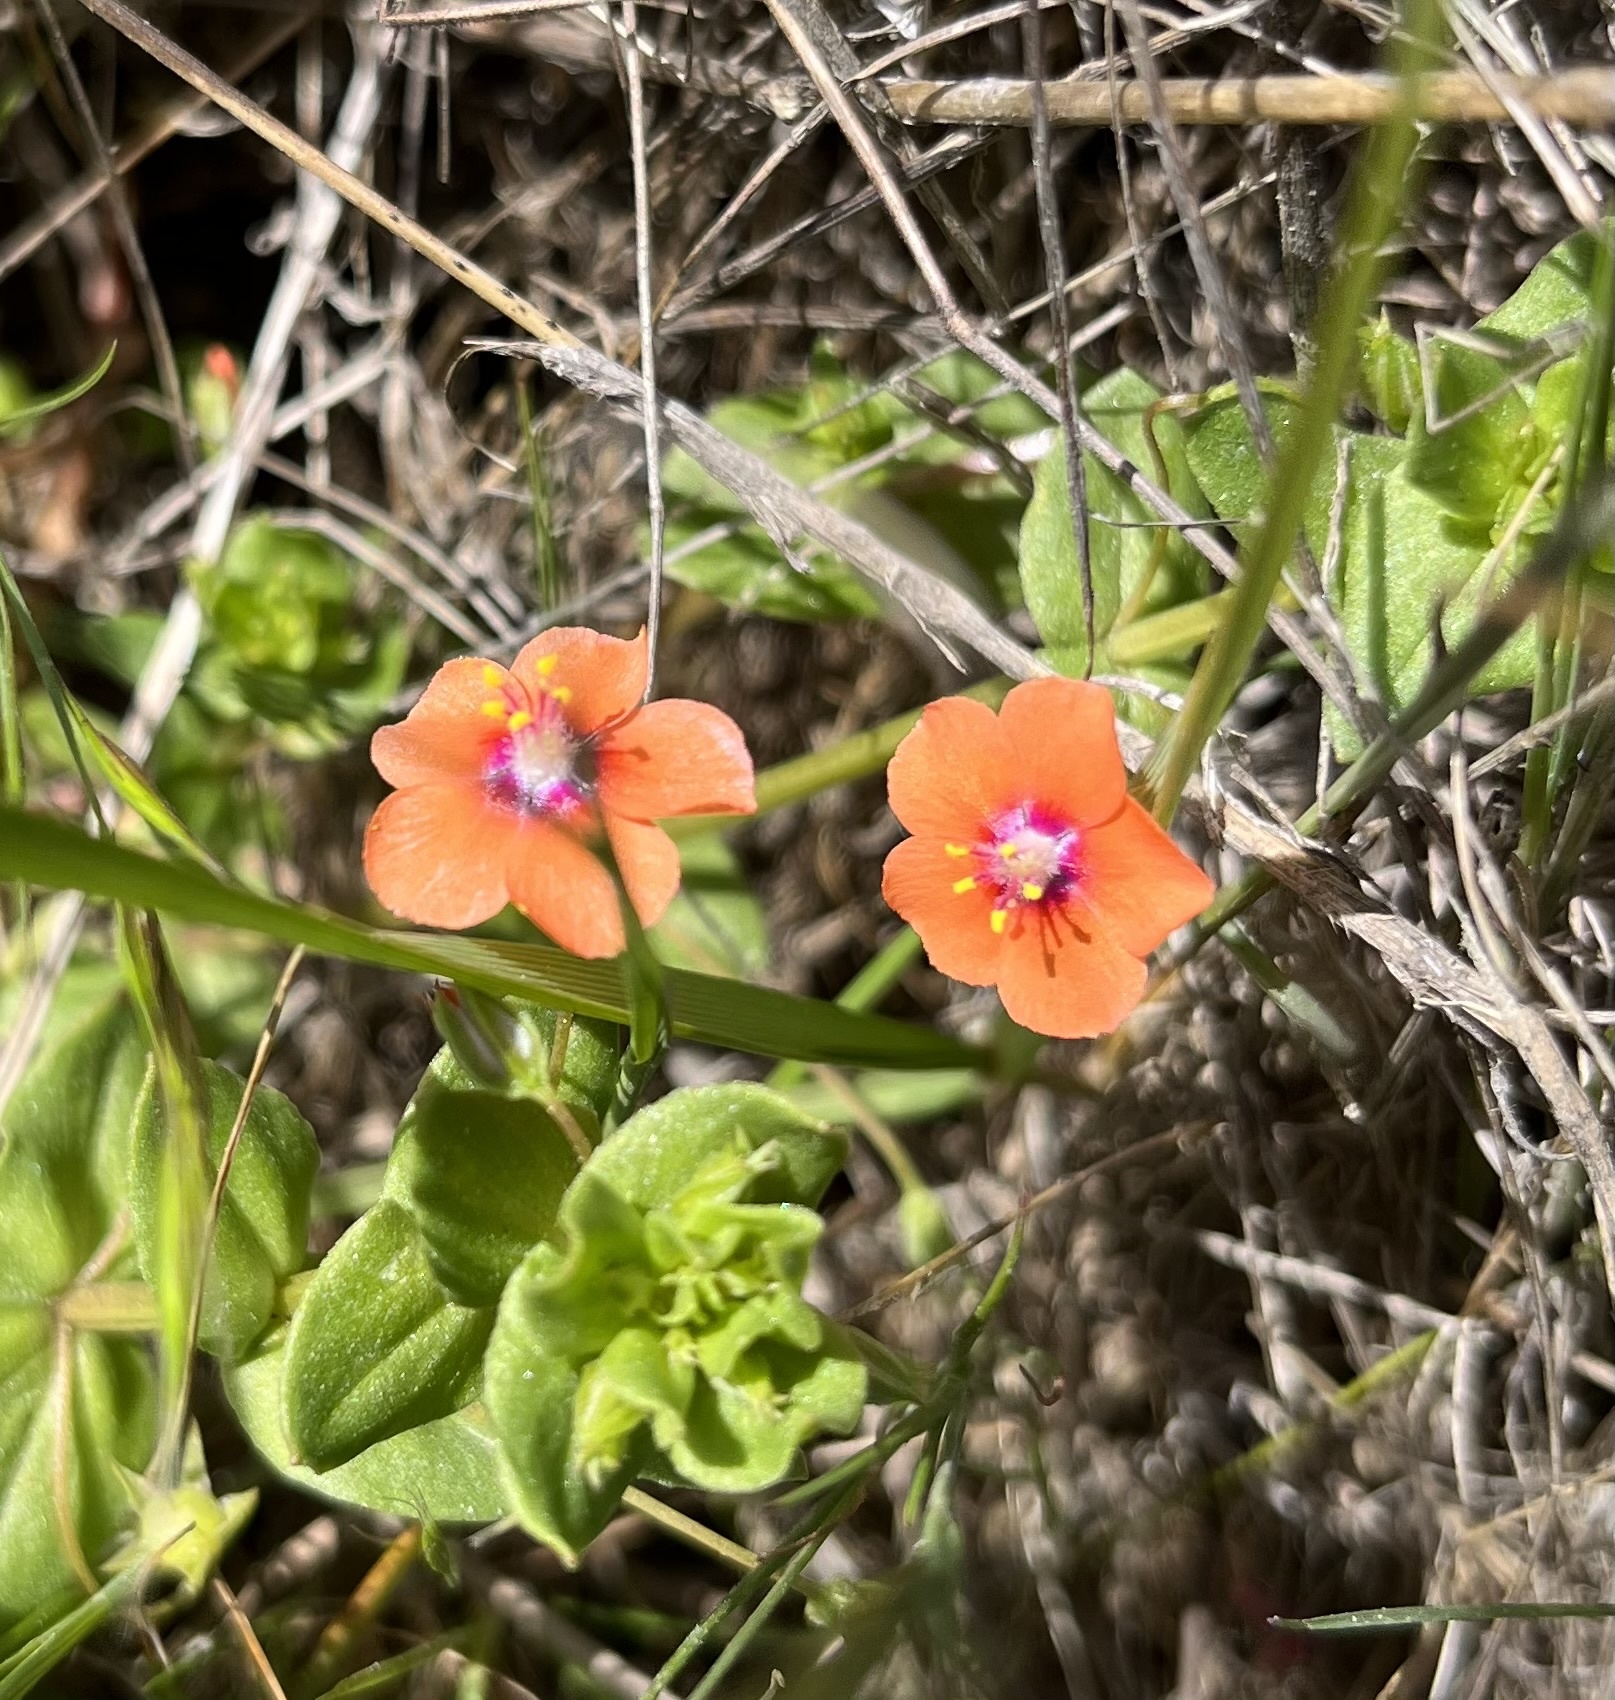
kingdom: Plantae
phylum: Tracheophyta
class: Magnoliopsida
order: Ericales
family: Primulaceae
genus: Lysimachia
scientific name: Lysimachia arvensis
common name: Scarlet pimpernel
